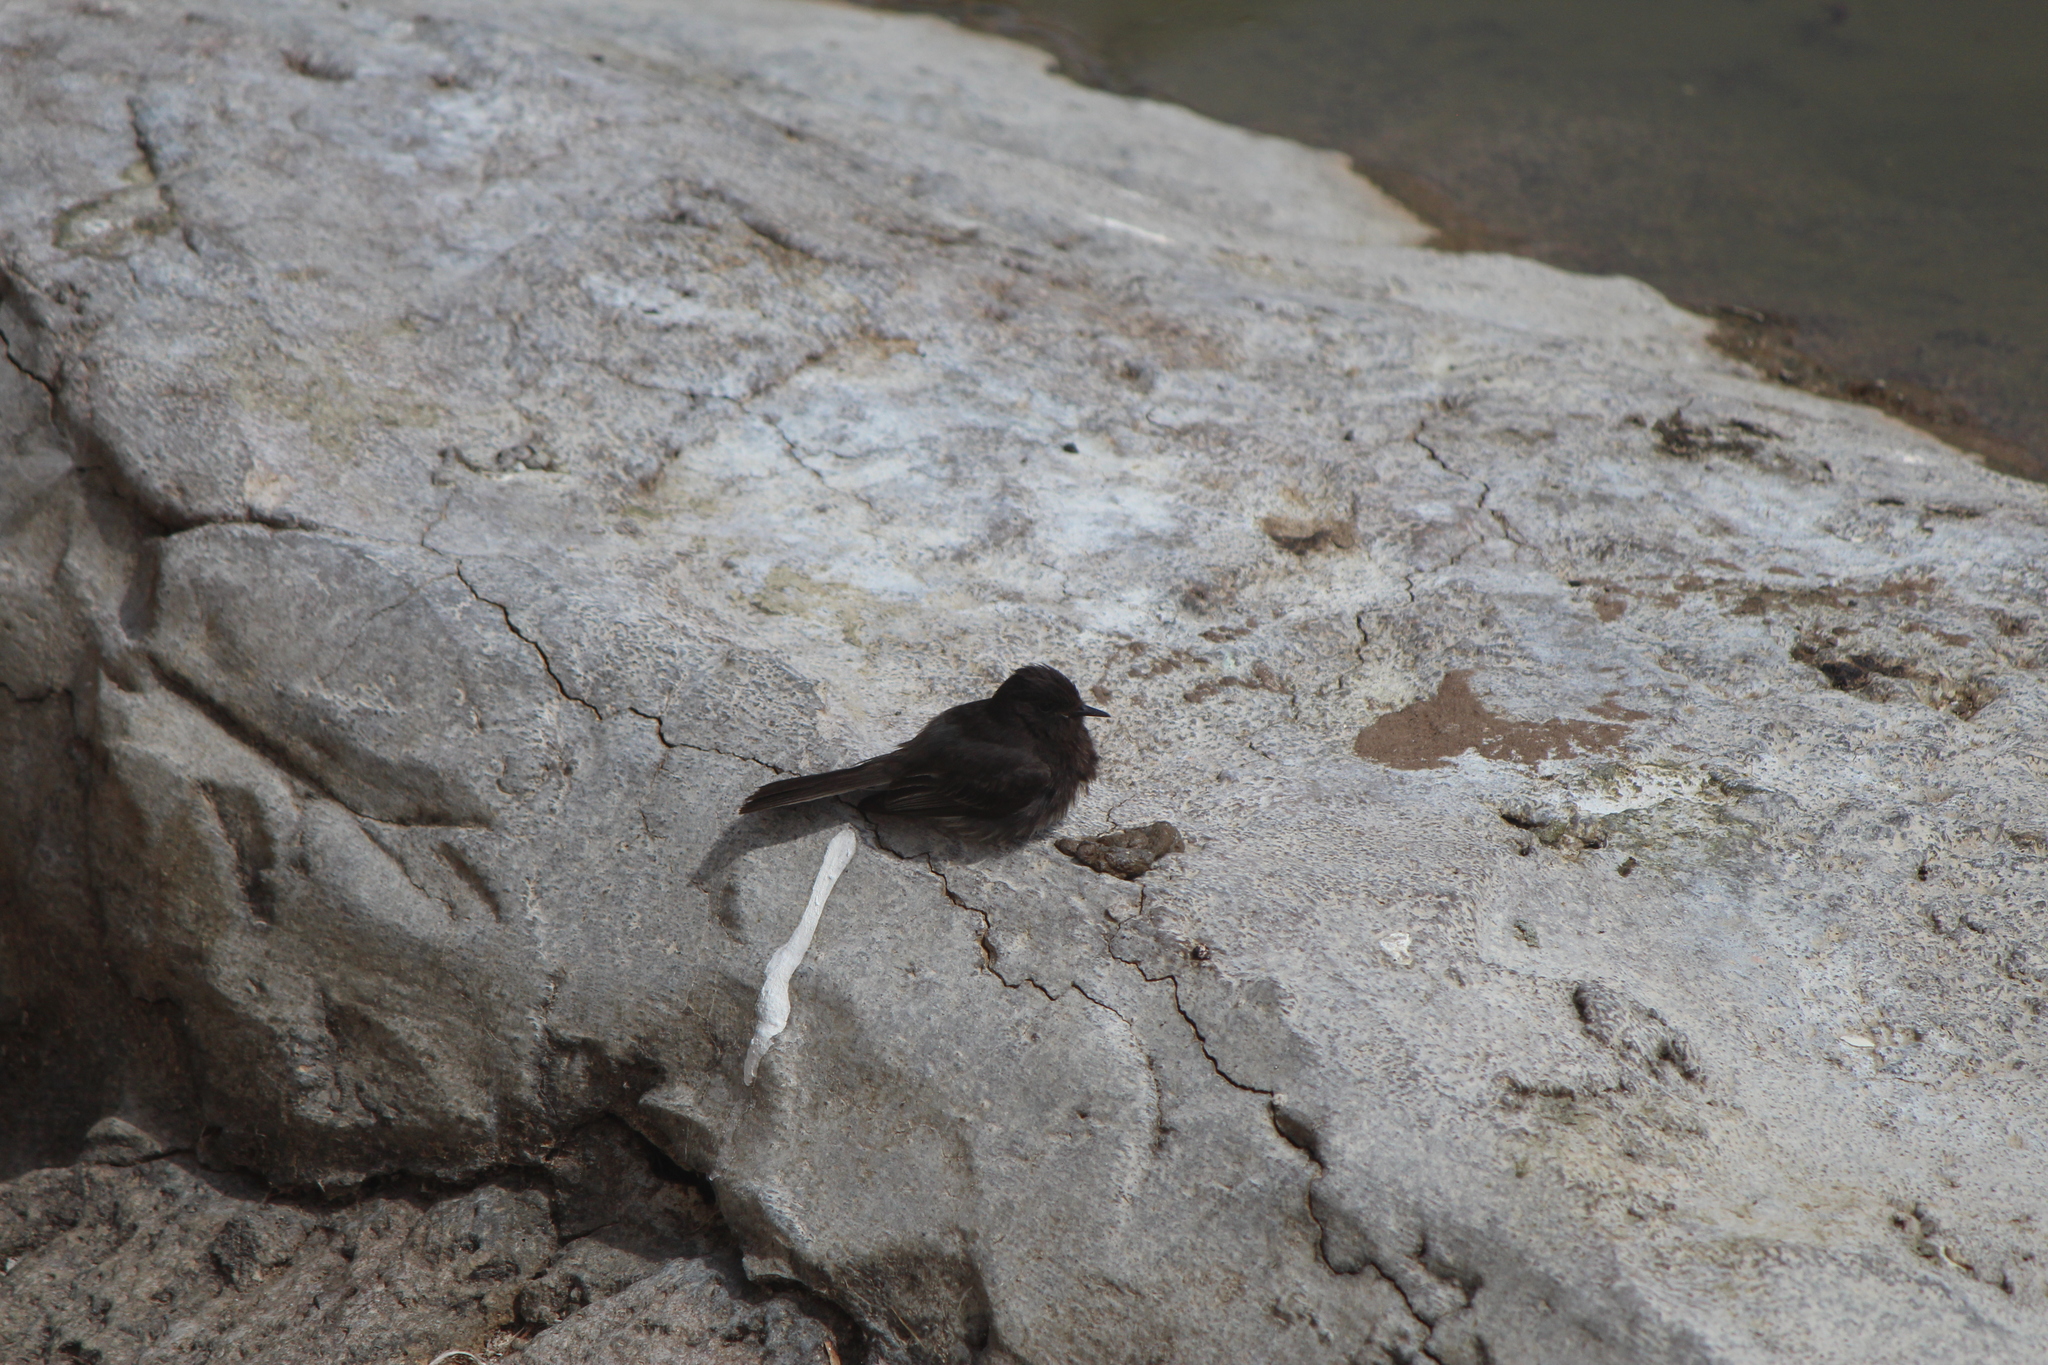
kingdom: Animalia
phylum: Chordata
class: Aves
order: Passeriformes
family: Tyrannidae
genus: Sayornis
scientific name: Sayornis nigricans
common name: Black phoebe
